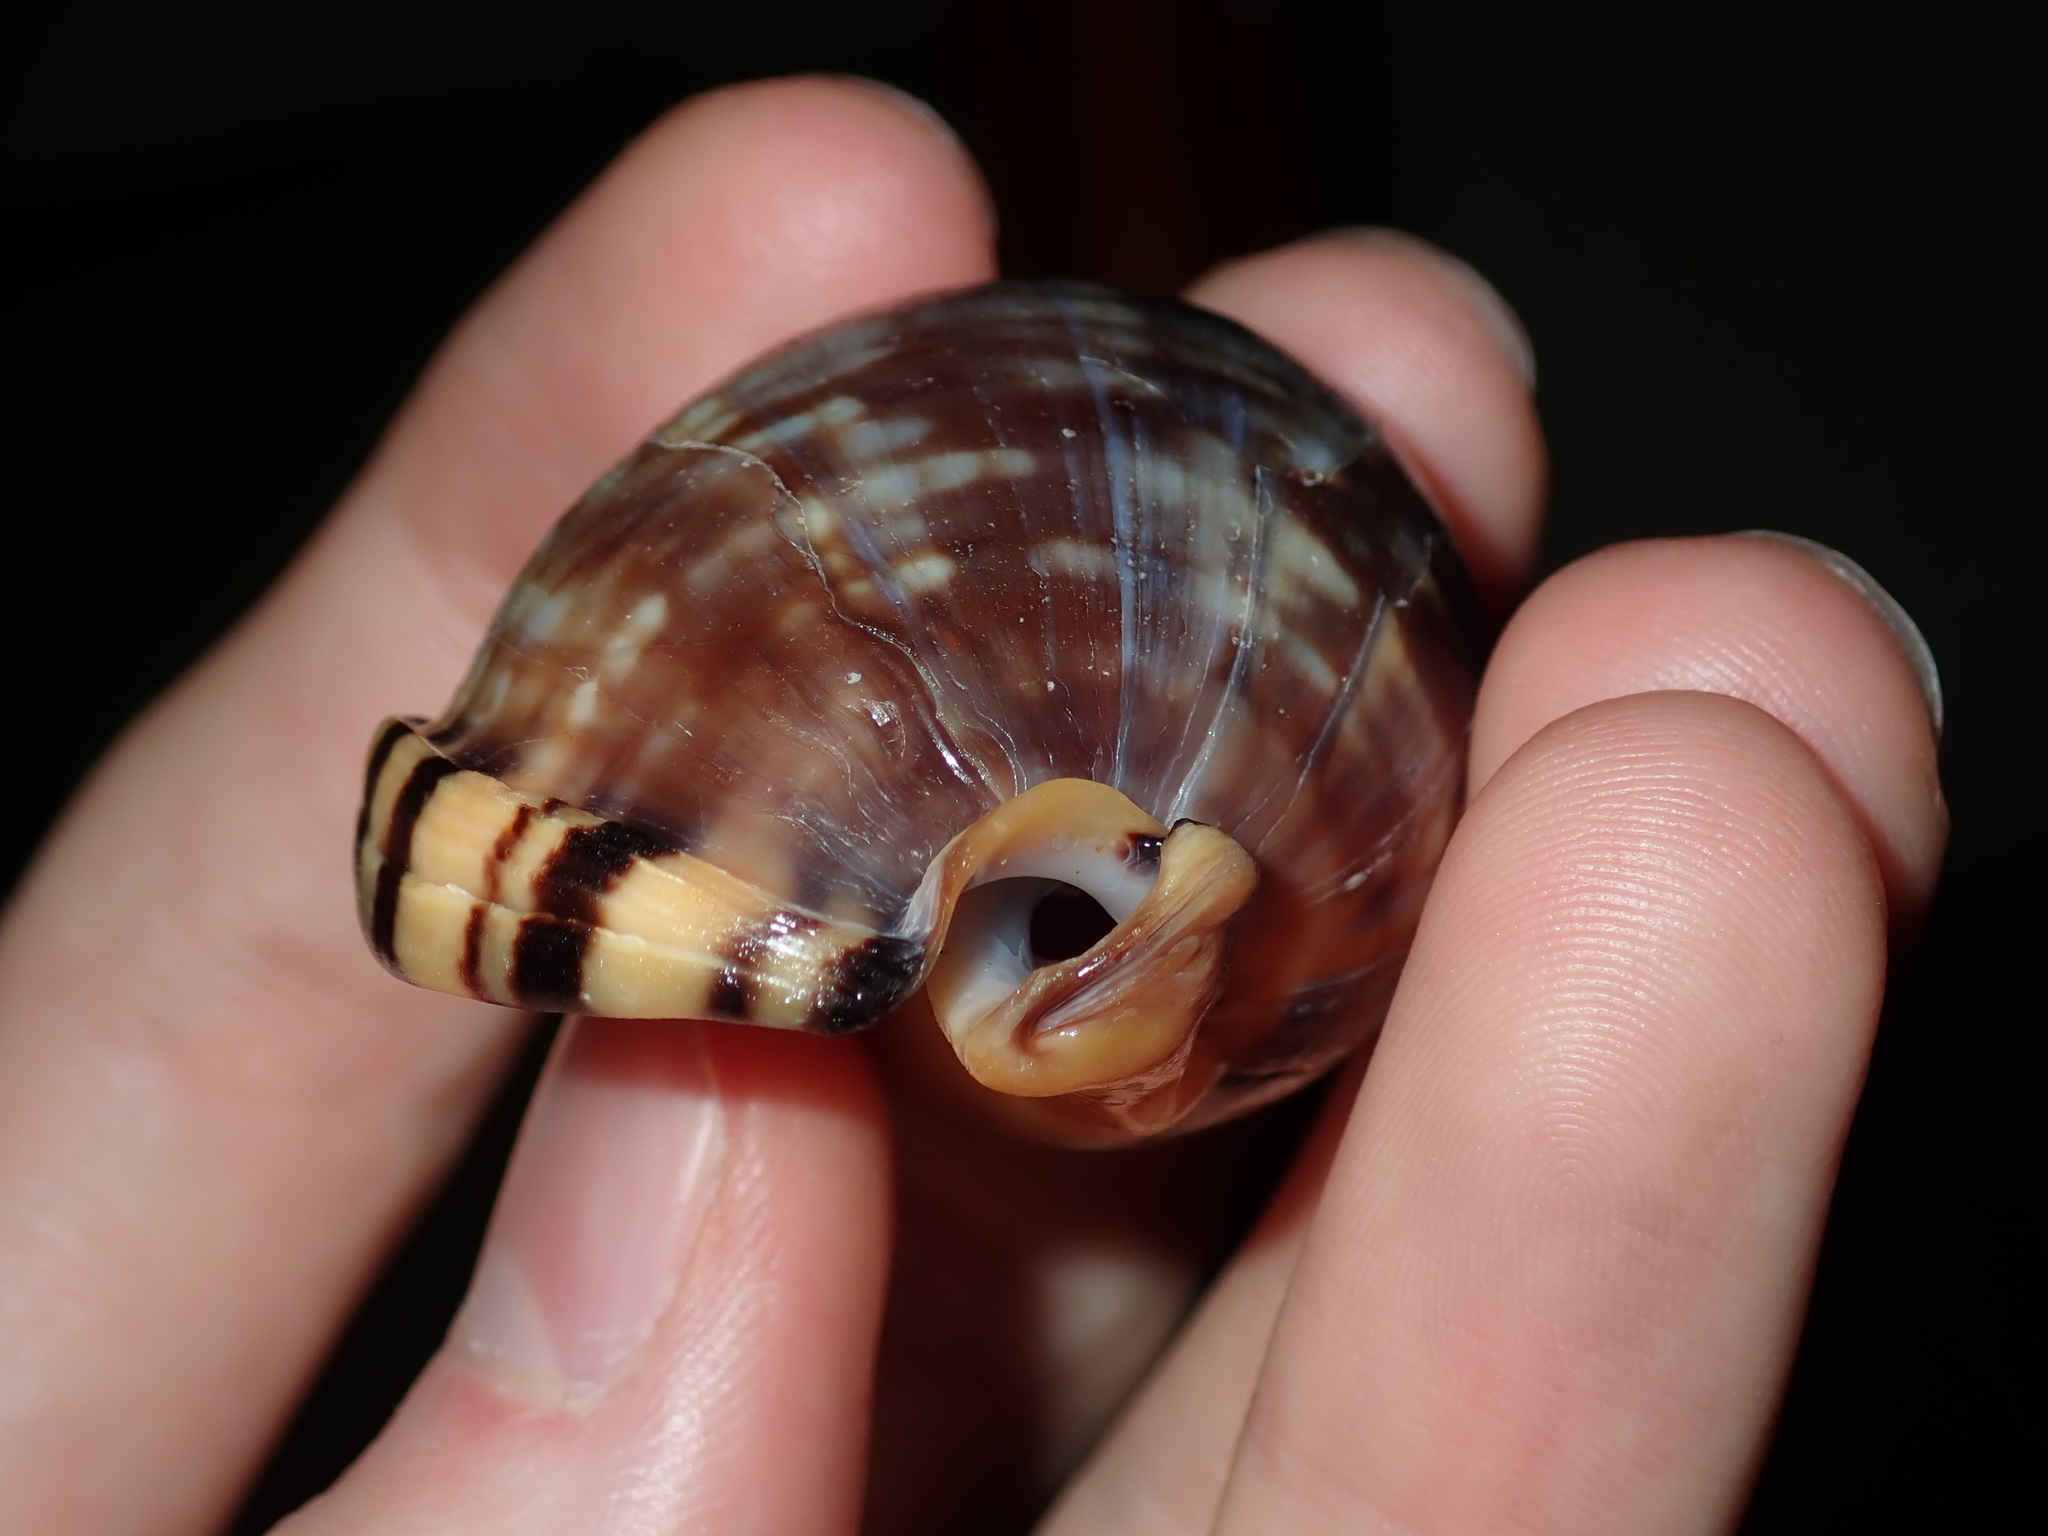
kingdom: Animalia
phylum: Mollusca
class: Gastropoda
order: Littorinimorpha
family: Cassidae
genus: Semicassis
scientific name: Semicassis labiata
